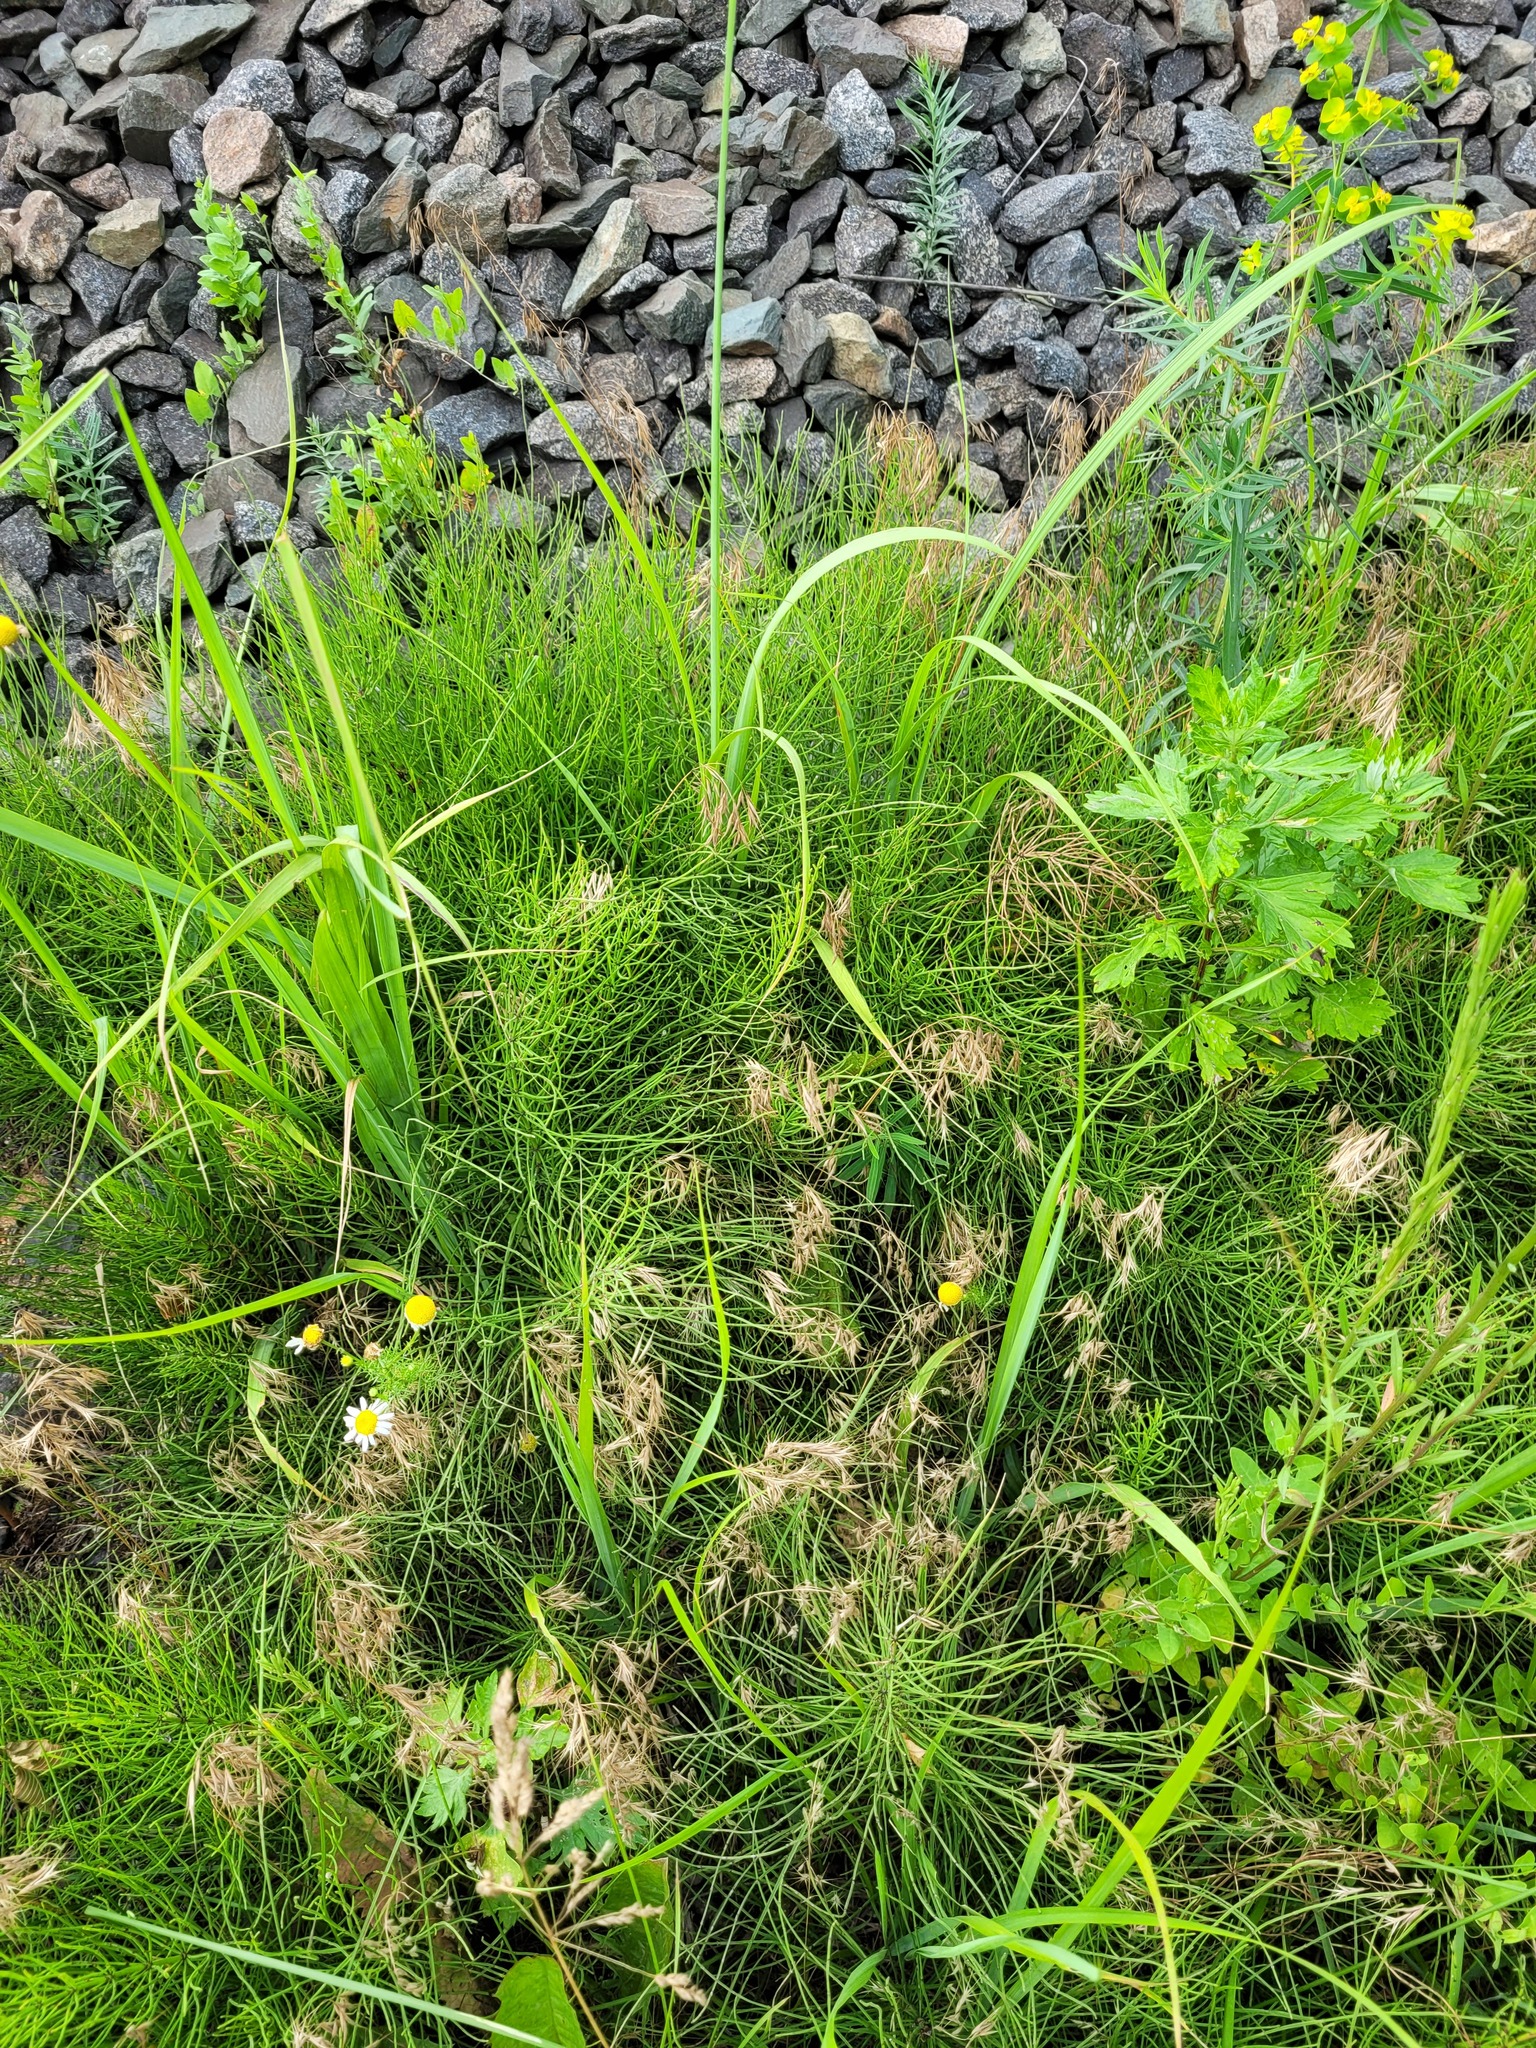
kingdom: Plantae
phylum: Tracheophyta
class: Liliopsida
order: Poales
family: Poaceae
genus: Bromus
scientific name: Bromus tectorum
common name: Cheatgrass
